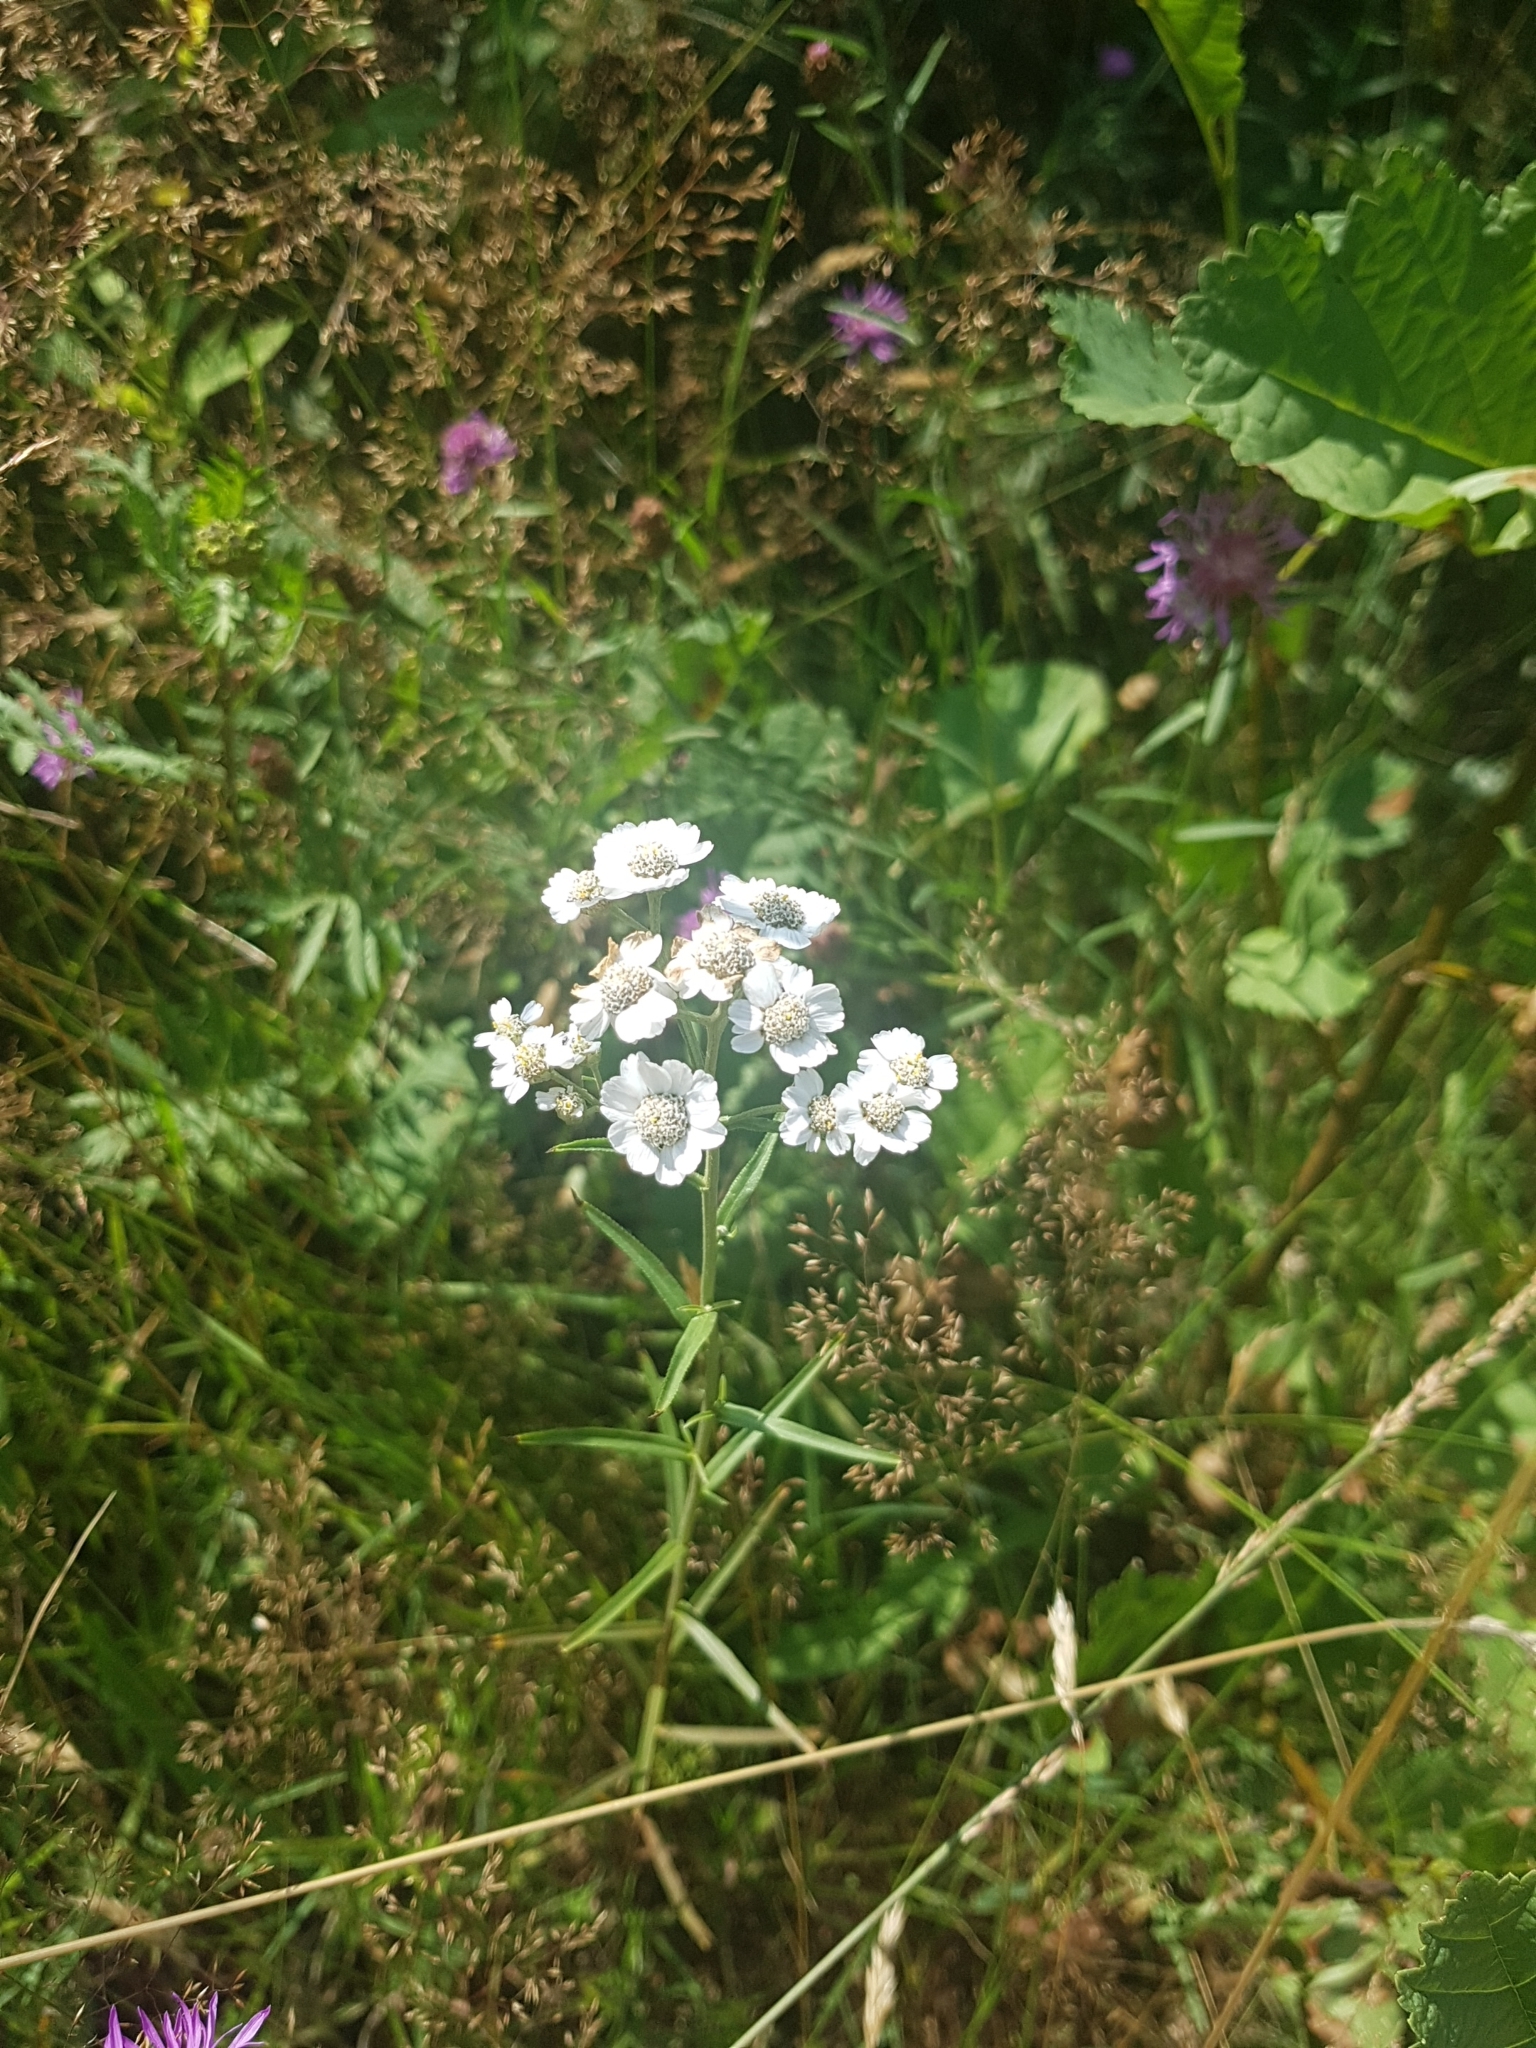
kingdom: Plantae
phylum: Tracheophyta
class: Magnoliopsida
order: Asterales
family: Asteraceae
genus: Achillea
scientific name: Achillea ptarmica
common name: Sneezeweed
